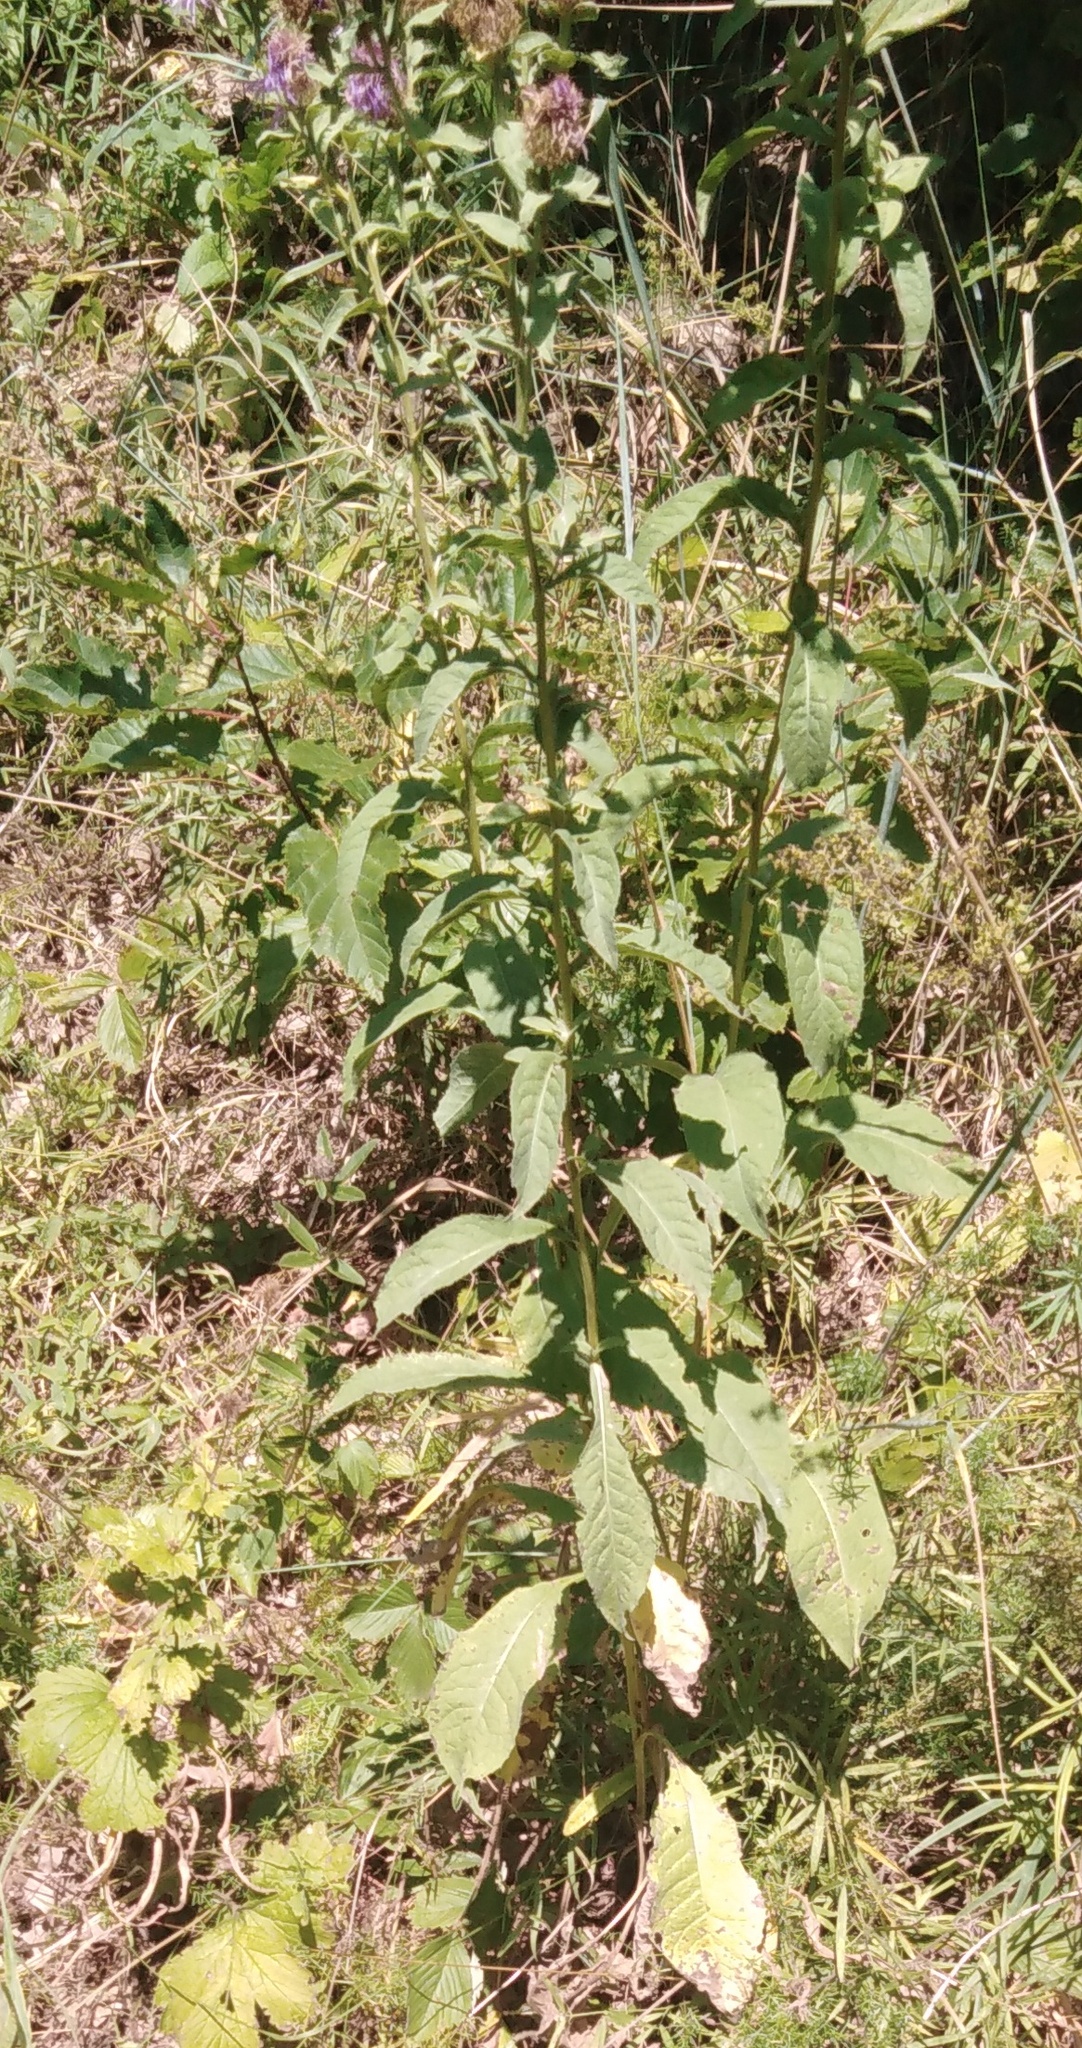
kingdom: Plantae
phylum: Tracheophyta
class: Magnoliopsida
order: Asterales
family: Asteraceae
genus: Centaurea
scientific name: Centaurea phrygia
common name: Wig knapweed
